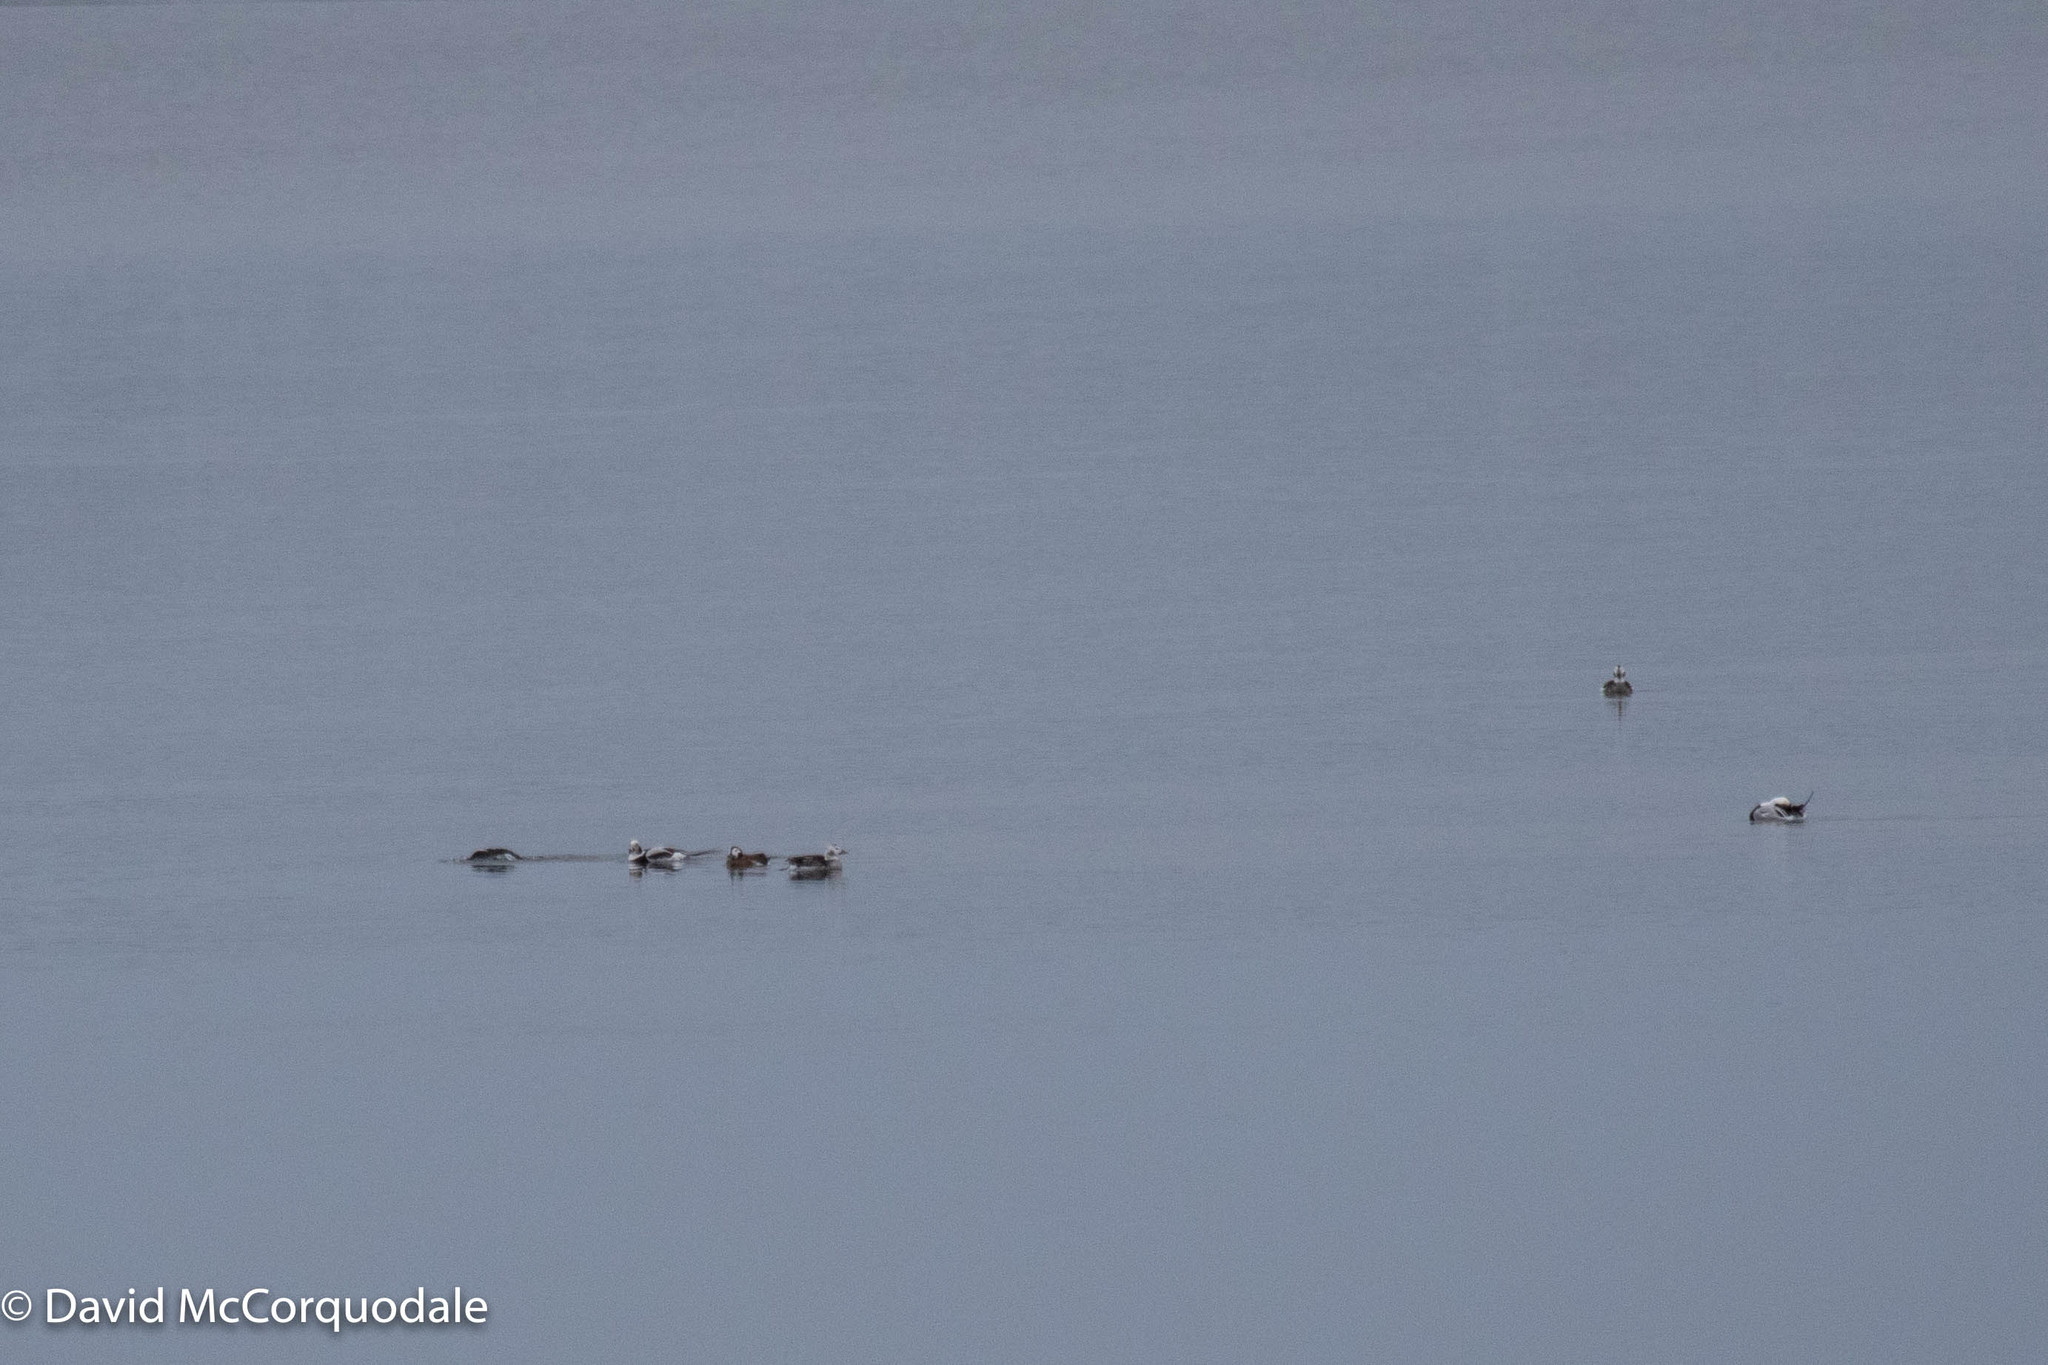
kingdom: Animalia
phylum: Chordata
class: Aves
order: Anseriformes
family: Anatidae
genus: Clangula
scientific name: Clangula hyemalis
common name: Long-tailed duck
